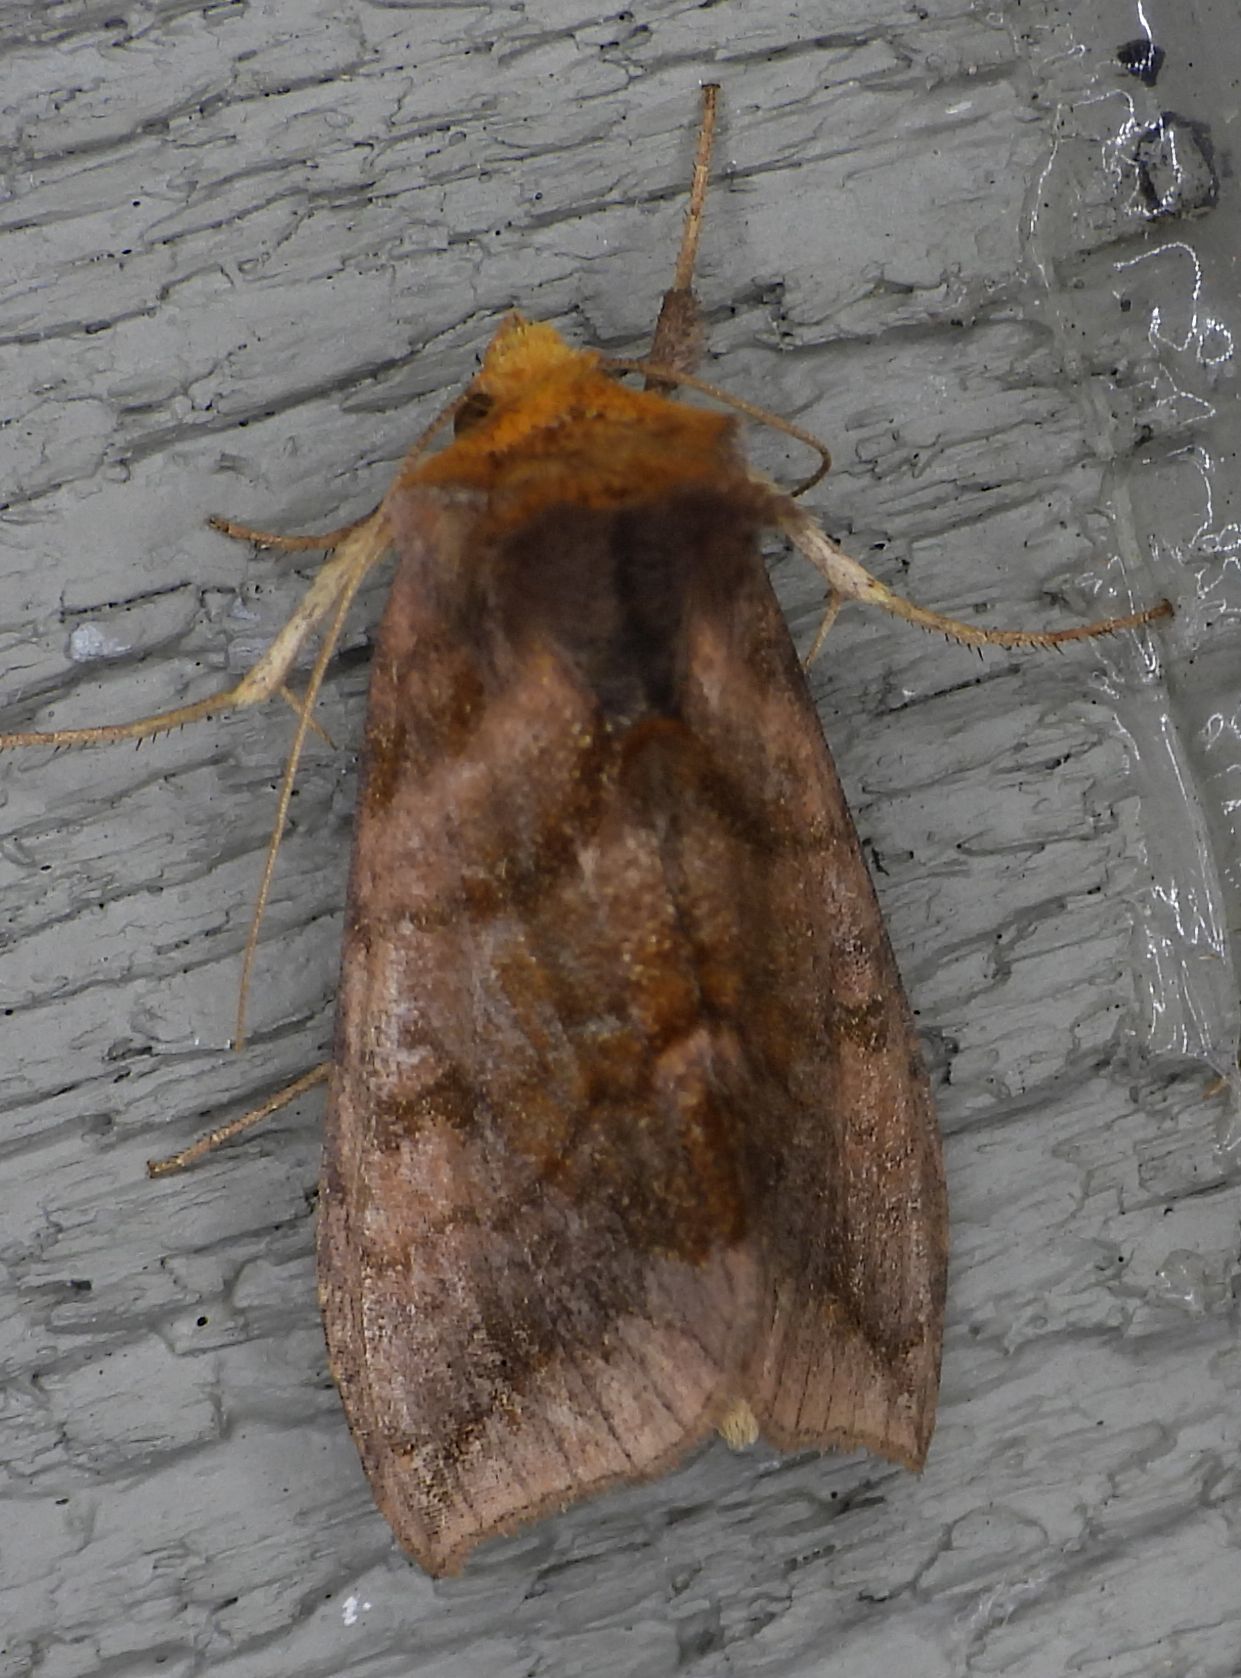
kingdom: Animalia
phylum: Arthropoda
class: Insecta
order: Lepidoptera
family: Noctuidae
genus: Allagrapha
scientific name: Allagrapha aerea
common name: Unspotted looper moth
